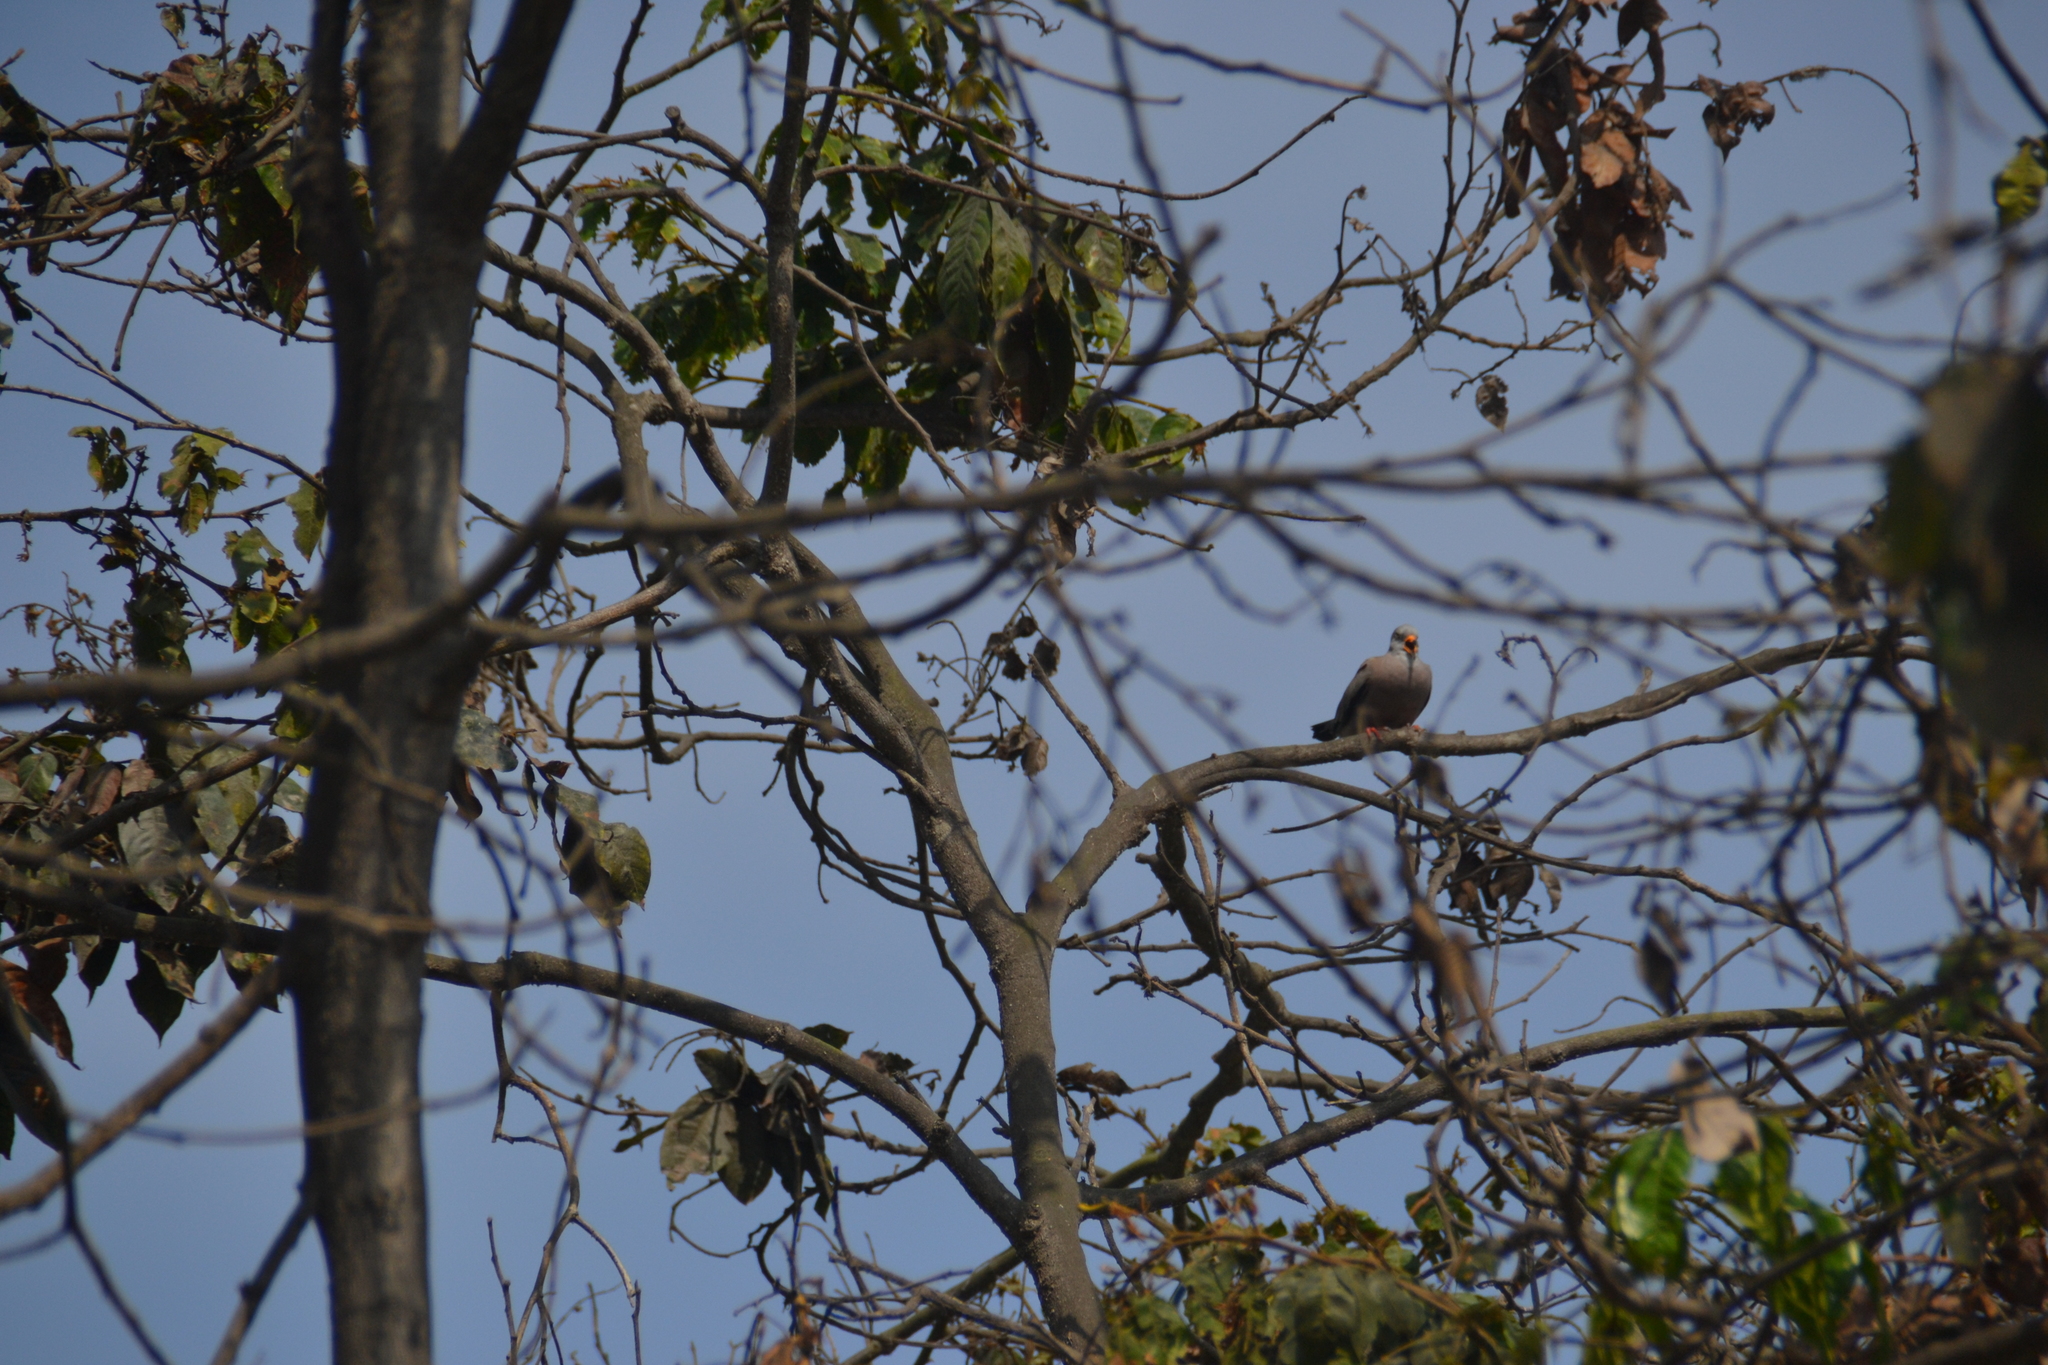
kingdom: Animalia
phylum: Chordata
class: Aves
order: Columbiformes
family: Columbidae
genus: Columbina
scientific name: Columbina cruziana
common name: Croaking ground dove
